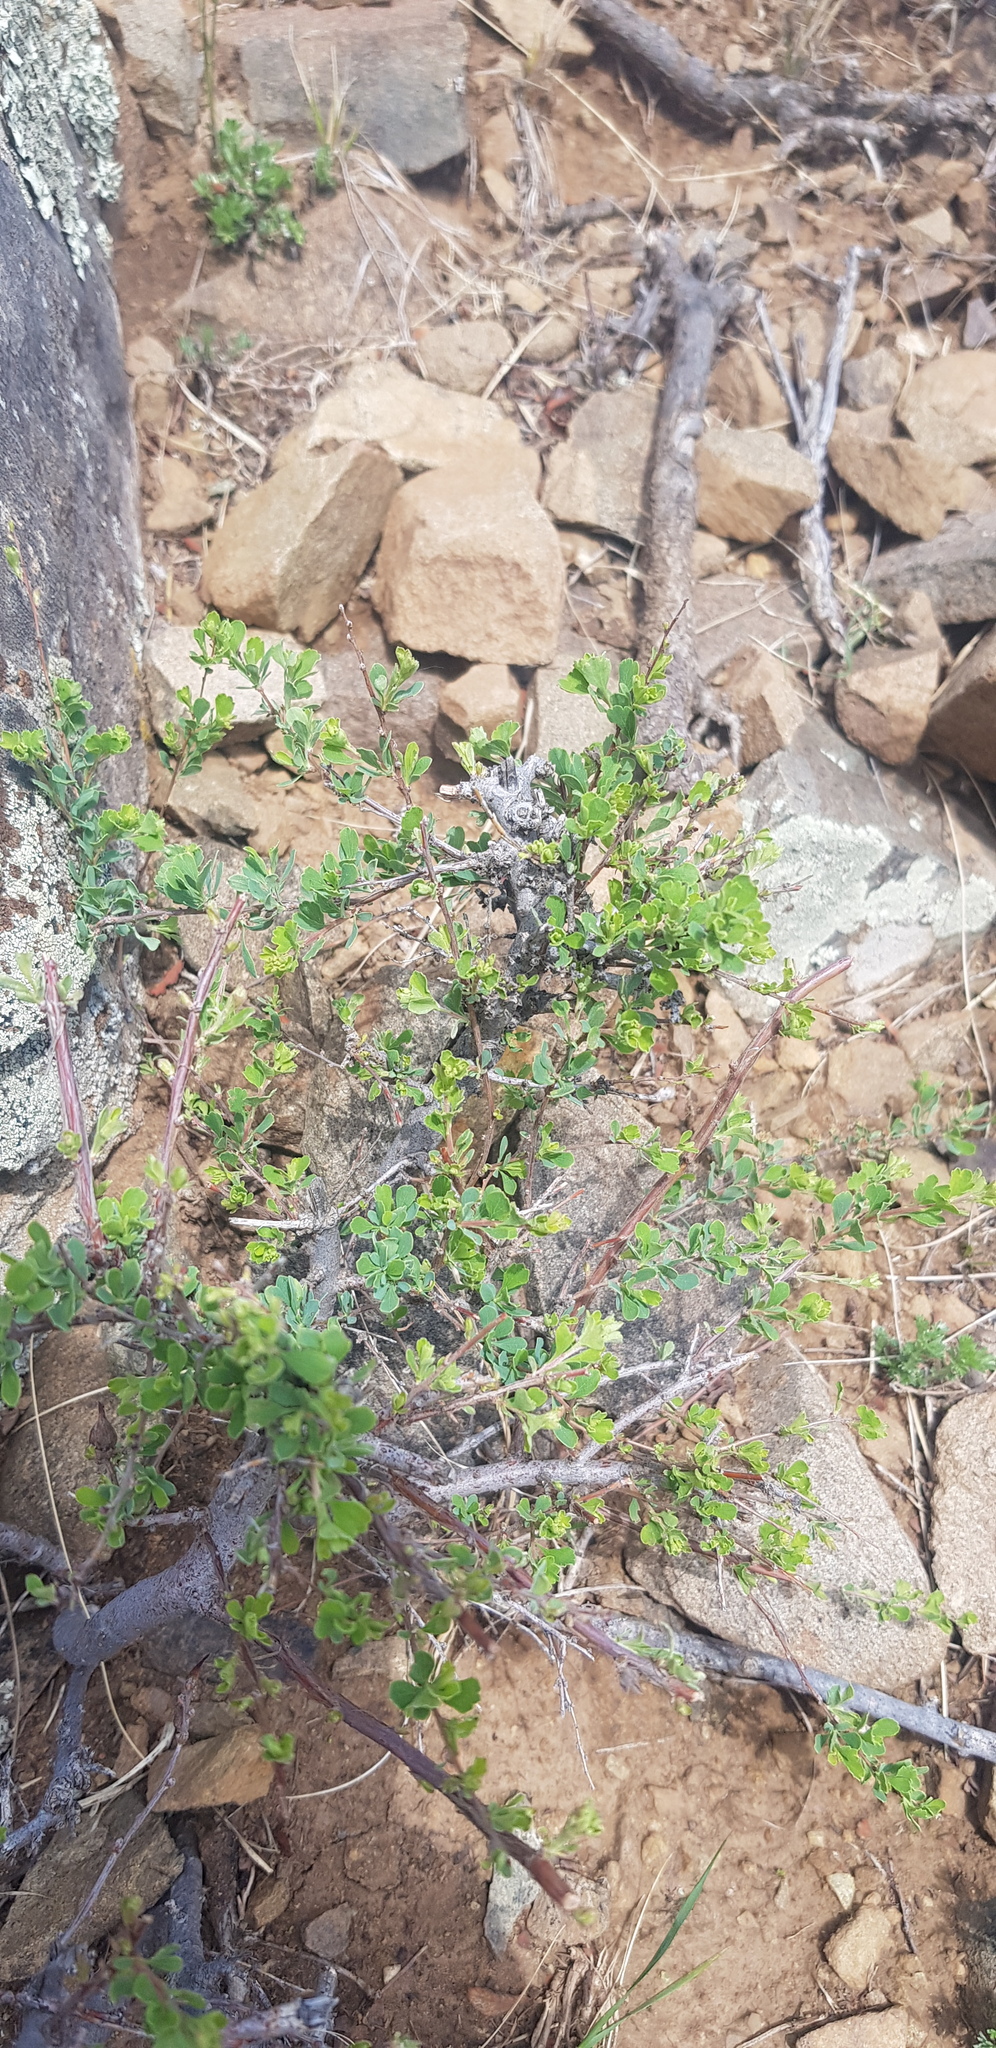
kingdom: Plantae
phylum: Tracheophyta
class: Magnoliopsida
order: Rosales
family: Rosaceae
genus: Spiraea
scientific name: Spiraea aquilegifolia
